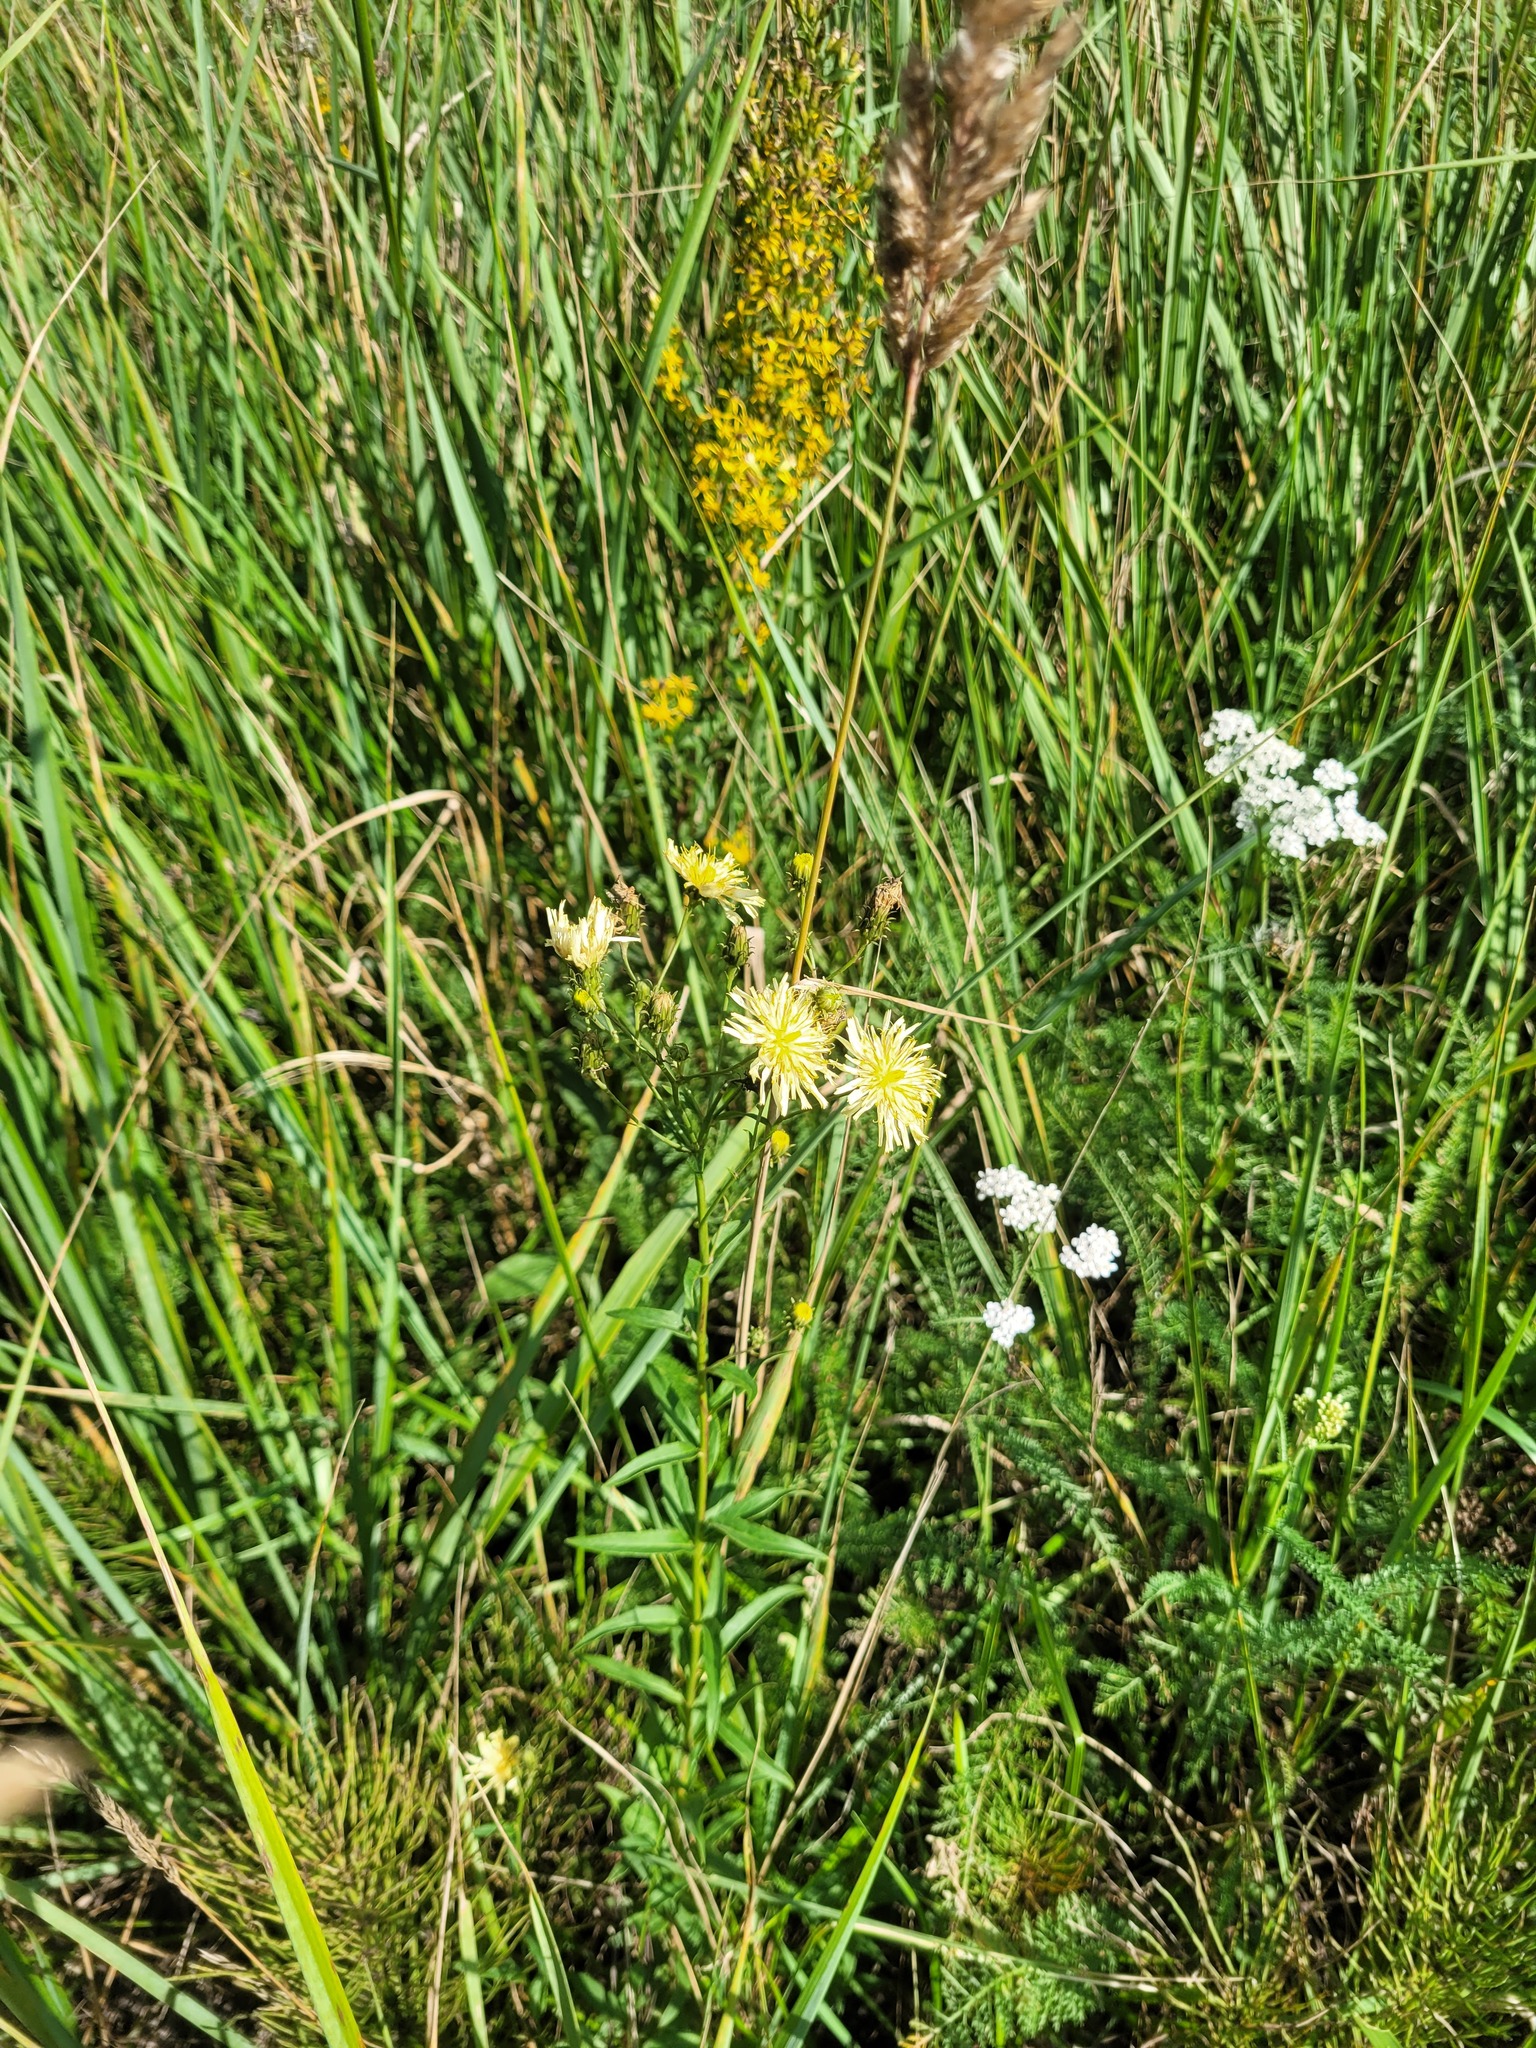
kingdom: Plantae
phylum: Tracheophyta
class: Magnoliopsida
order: Asterales
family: Asteraceae
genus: Hieracium
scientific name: Hieracium umbellatum
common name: Northern hawkweed
